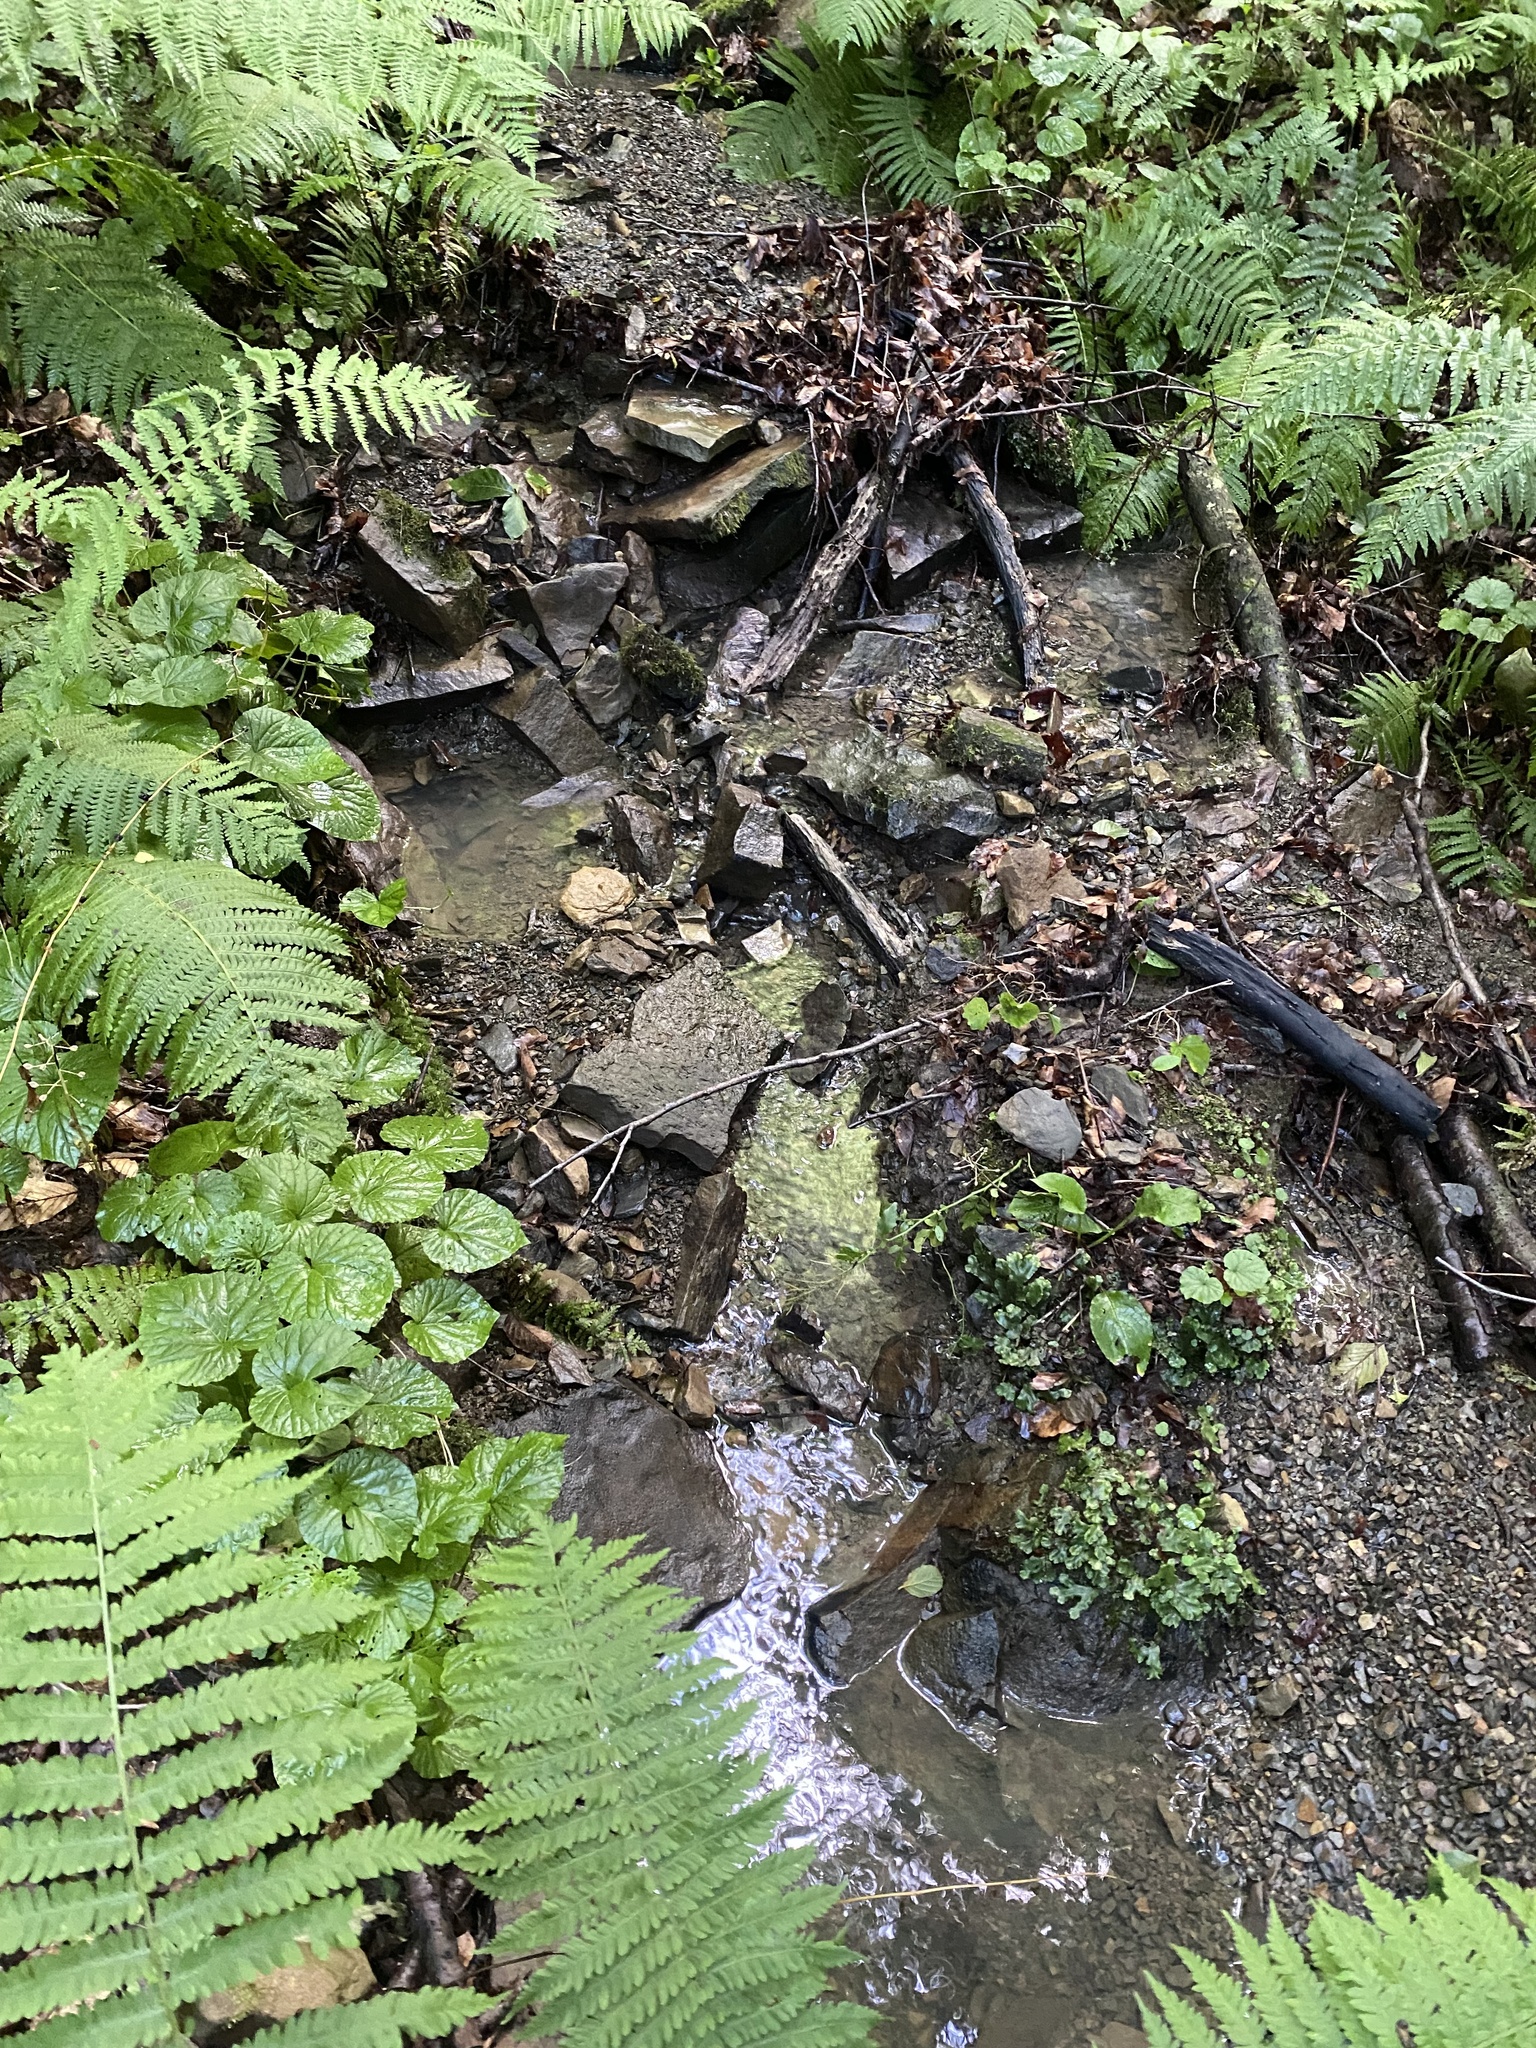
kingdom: Plantae
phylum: Tracheophyta
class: Polypodiopsida
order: Polypodiales
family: Onocleaceae
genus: Matteuccia
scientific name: Matteuccia struthiopteris
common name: Ostrich fern
